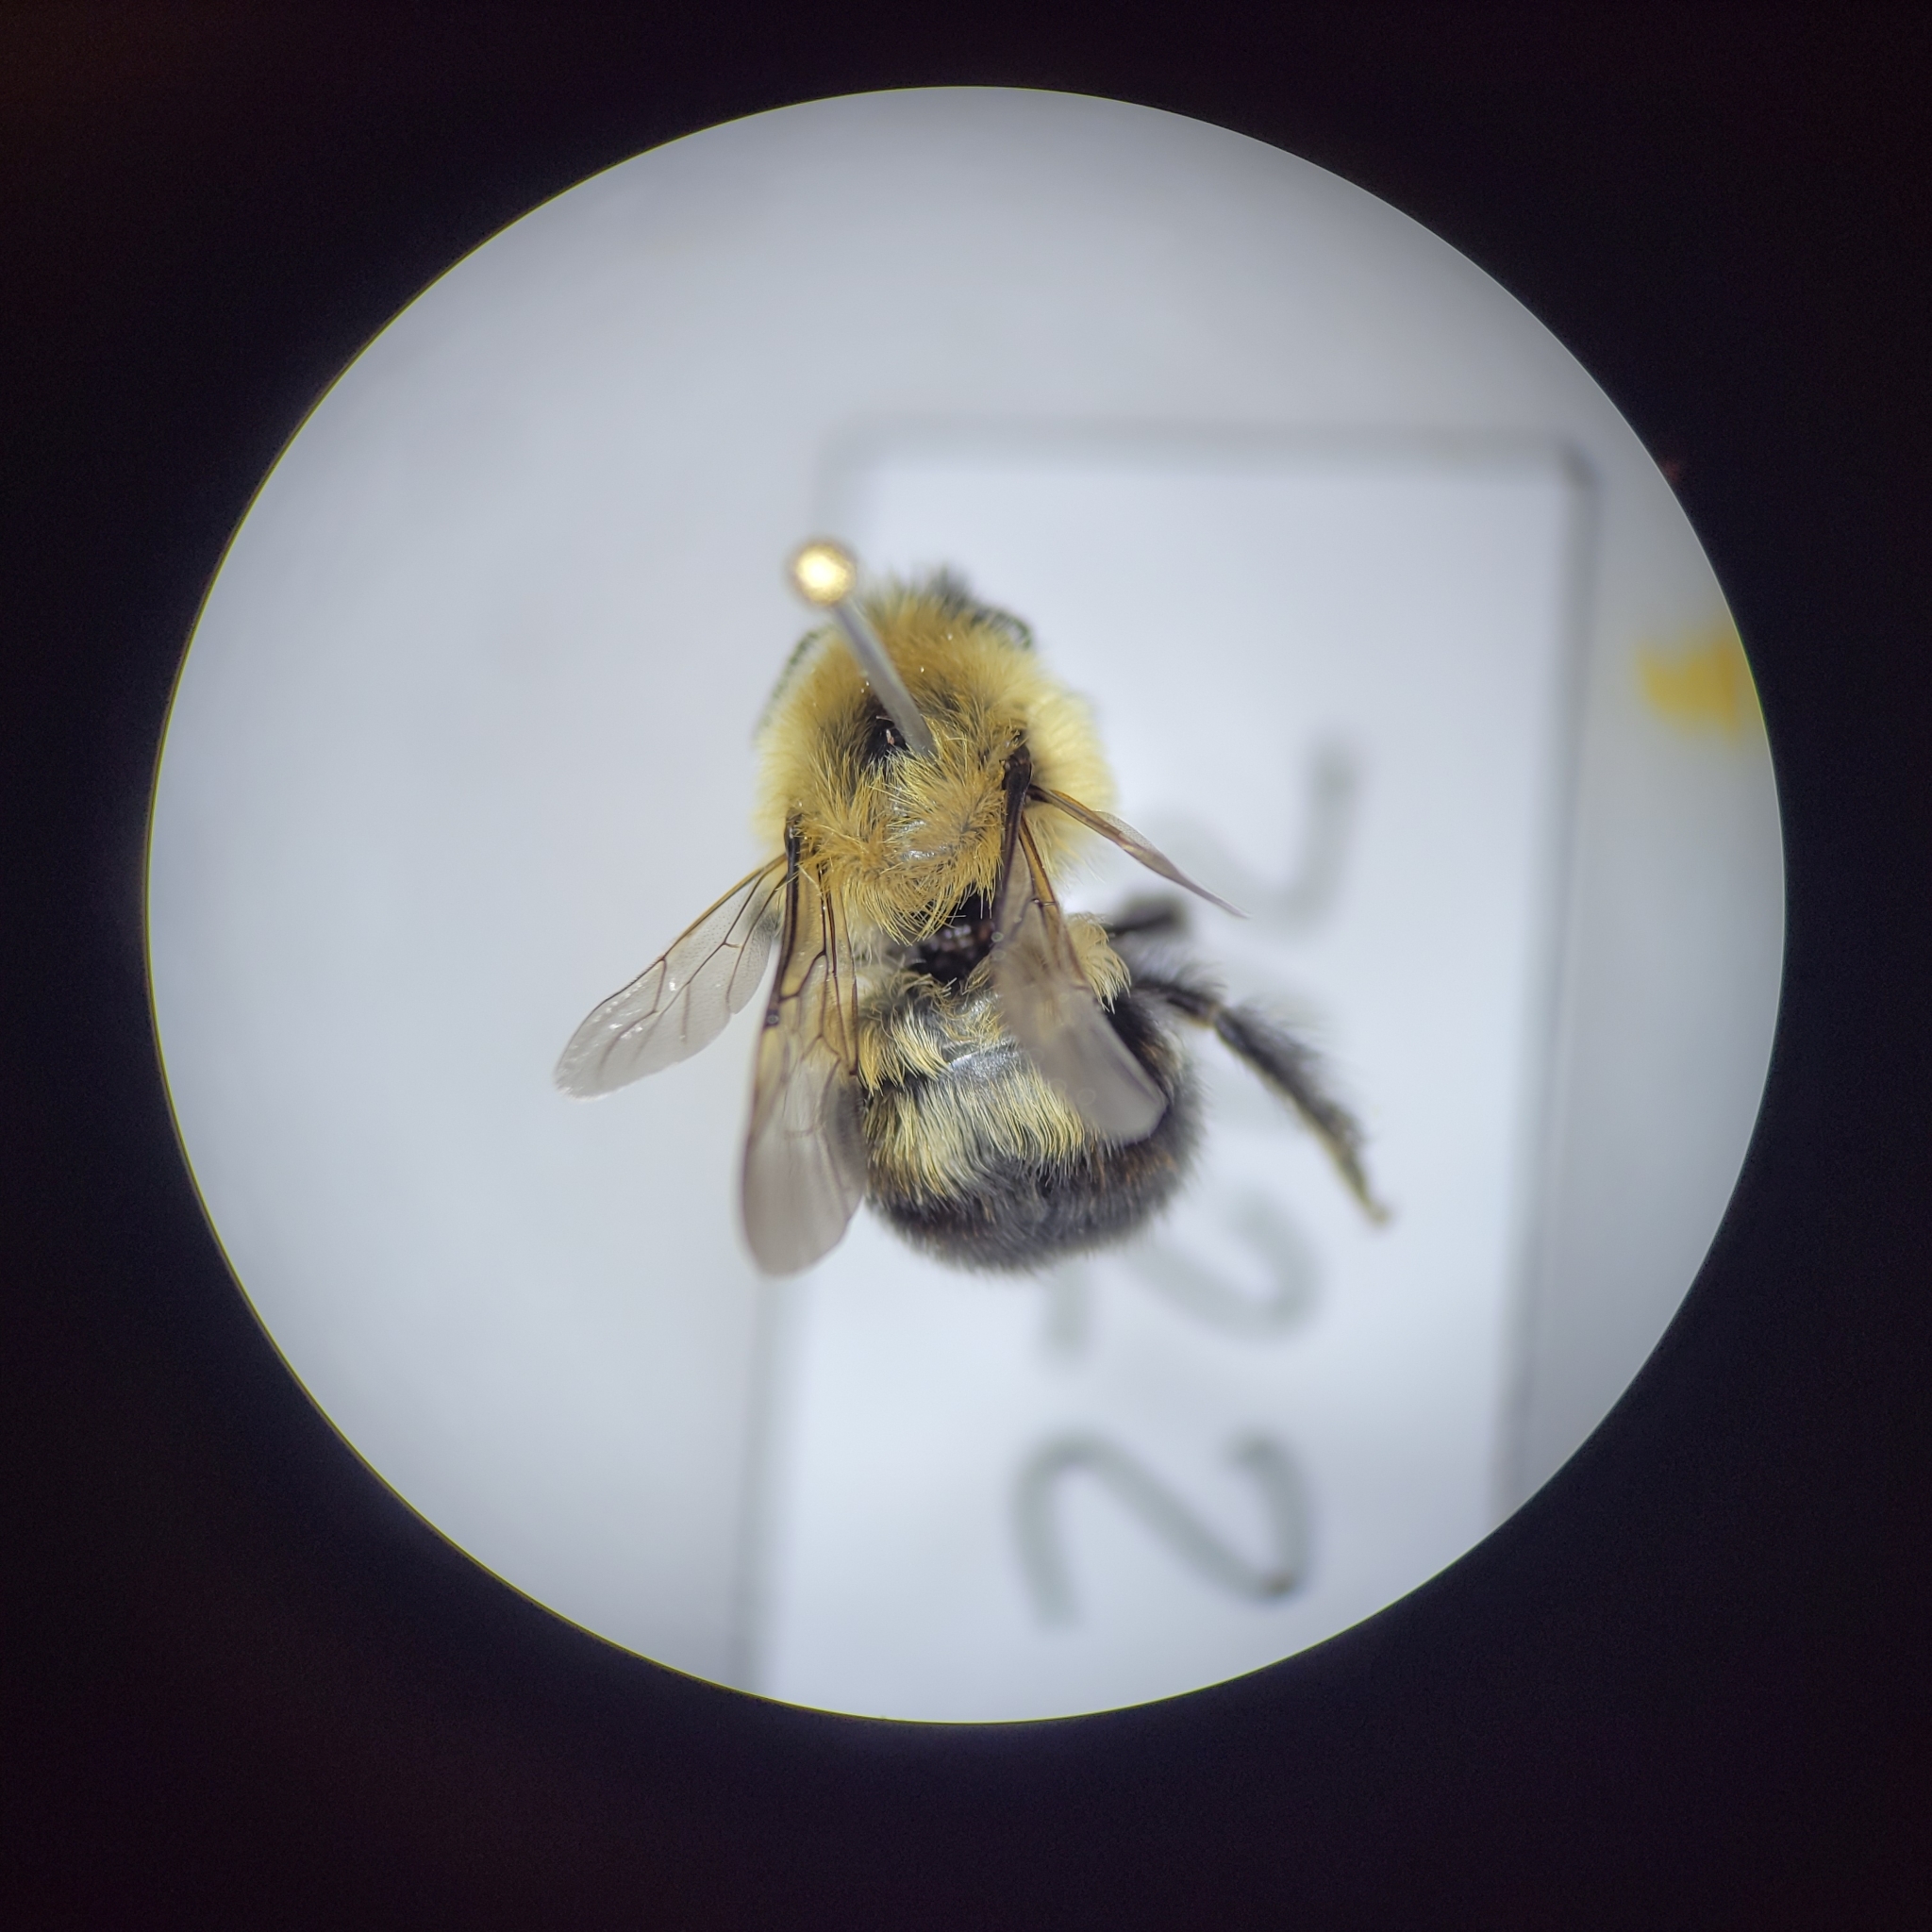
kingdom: Animalia
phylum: Arthropoda
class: Insecta
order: Hymenoptera
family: Apidae
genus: Bombus
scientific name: Bombus bimaculatus
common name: Two-spotted bumble bee
